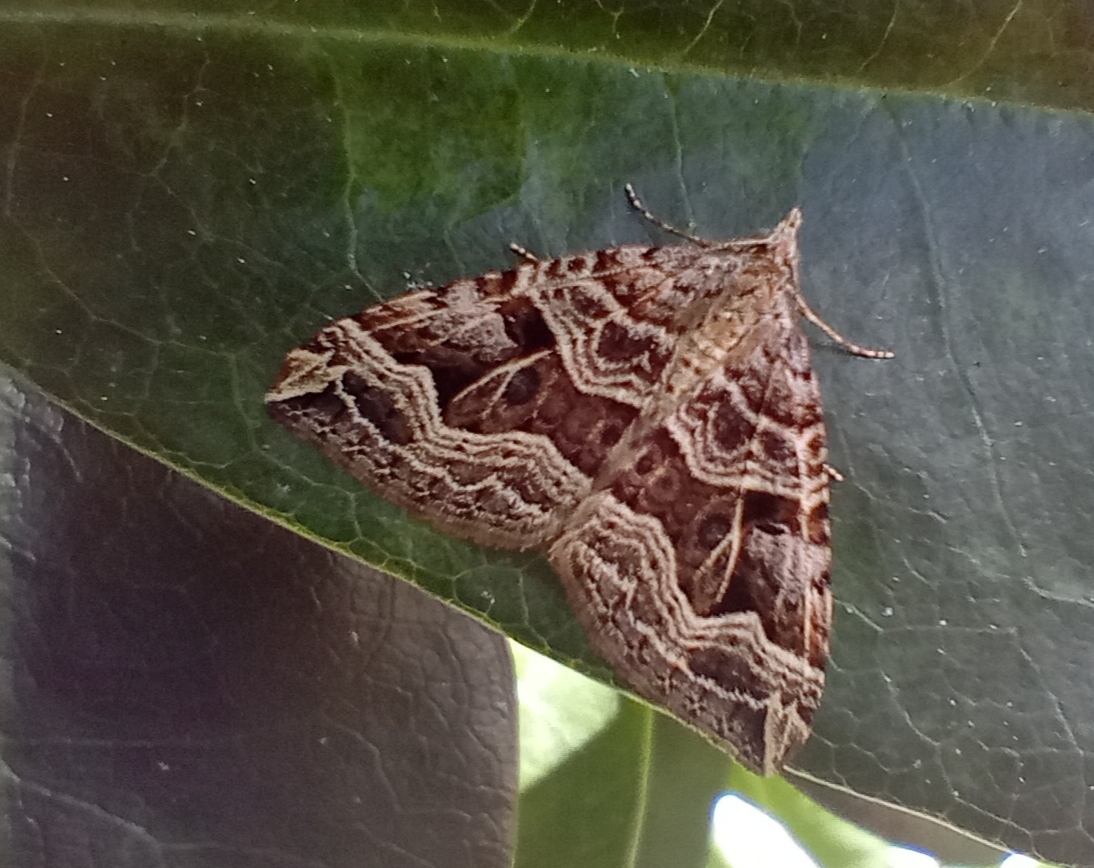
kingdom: Animalia
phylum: Arthropoda
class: Insecta
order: Lepidoptera
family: Geometridae
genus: Xanthorhoe
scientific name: Xanthorhoe semifissata
